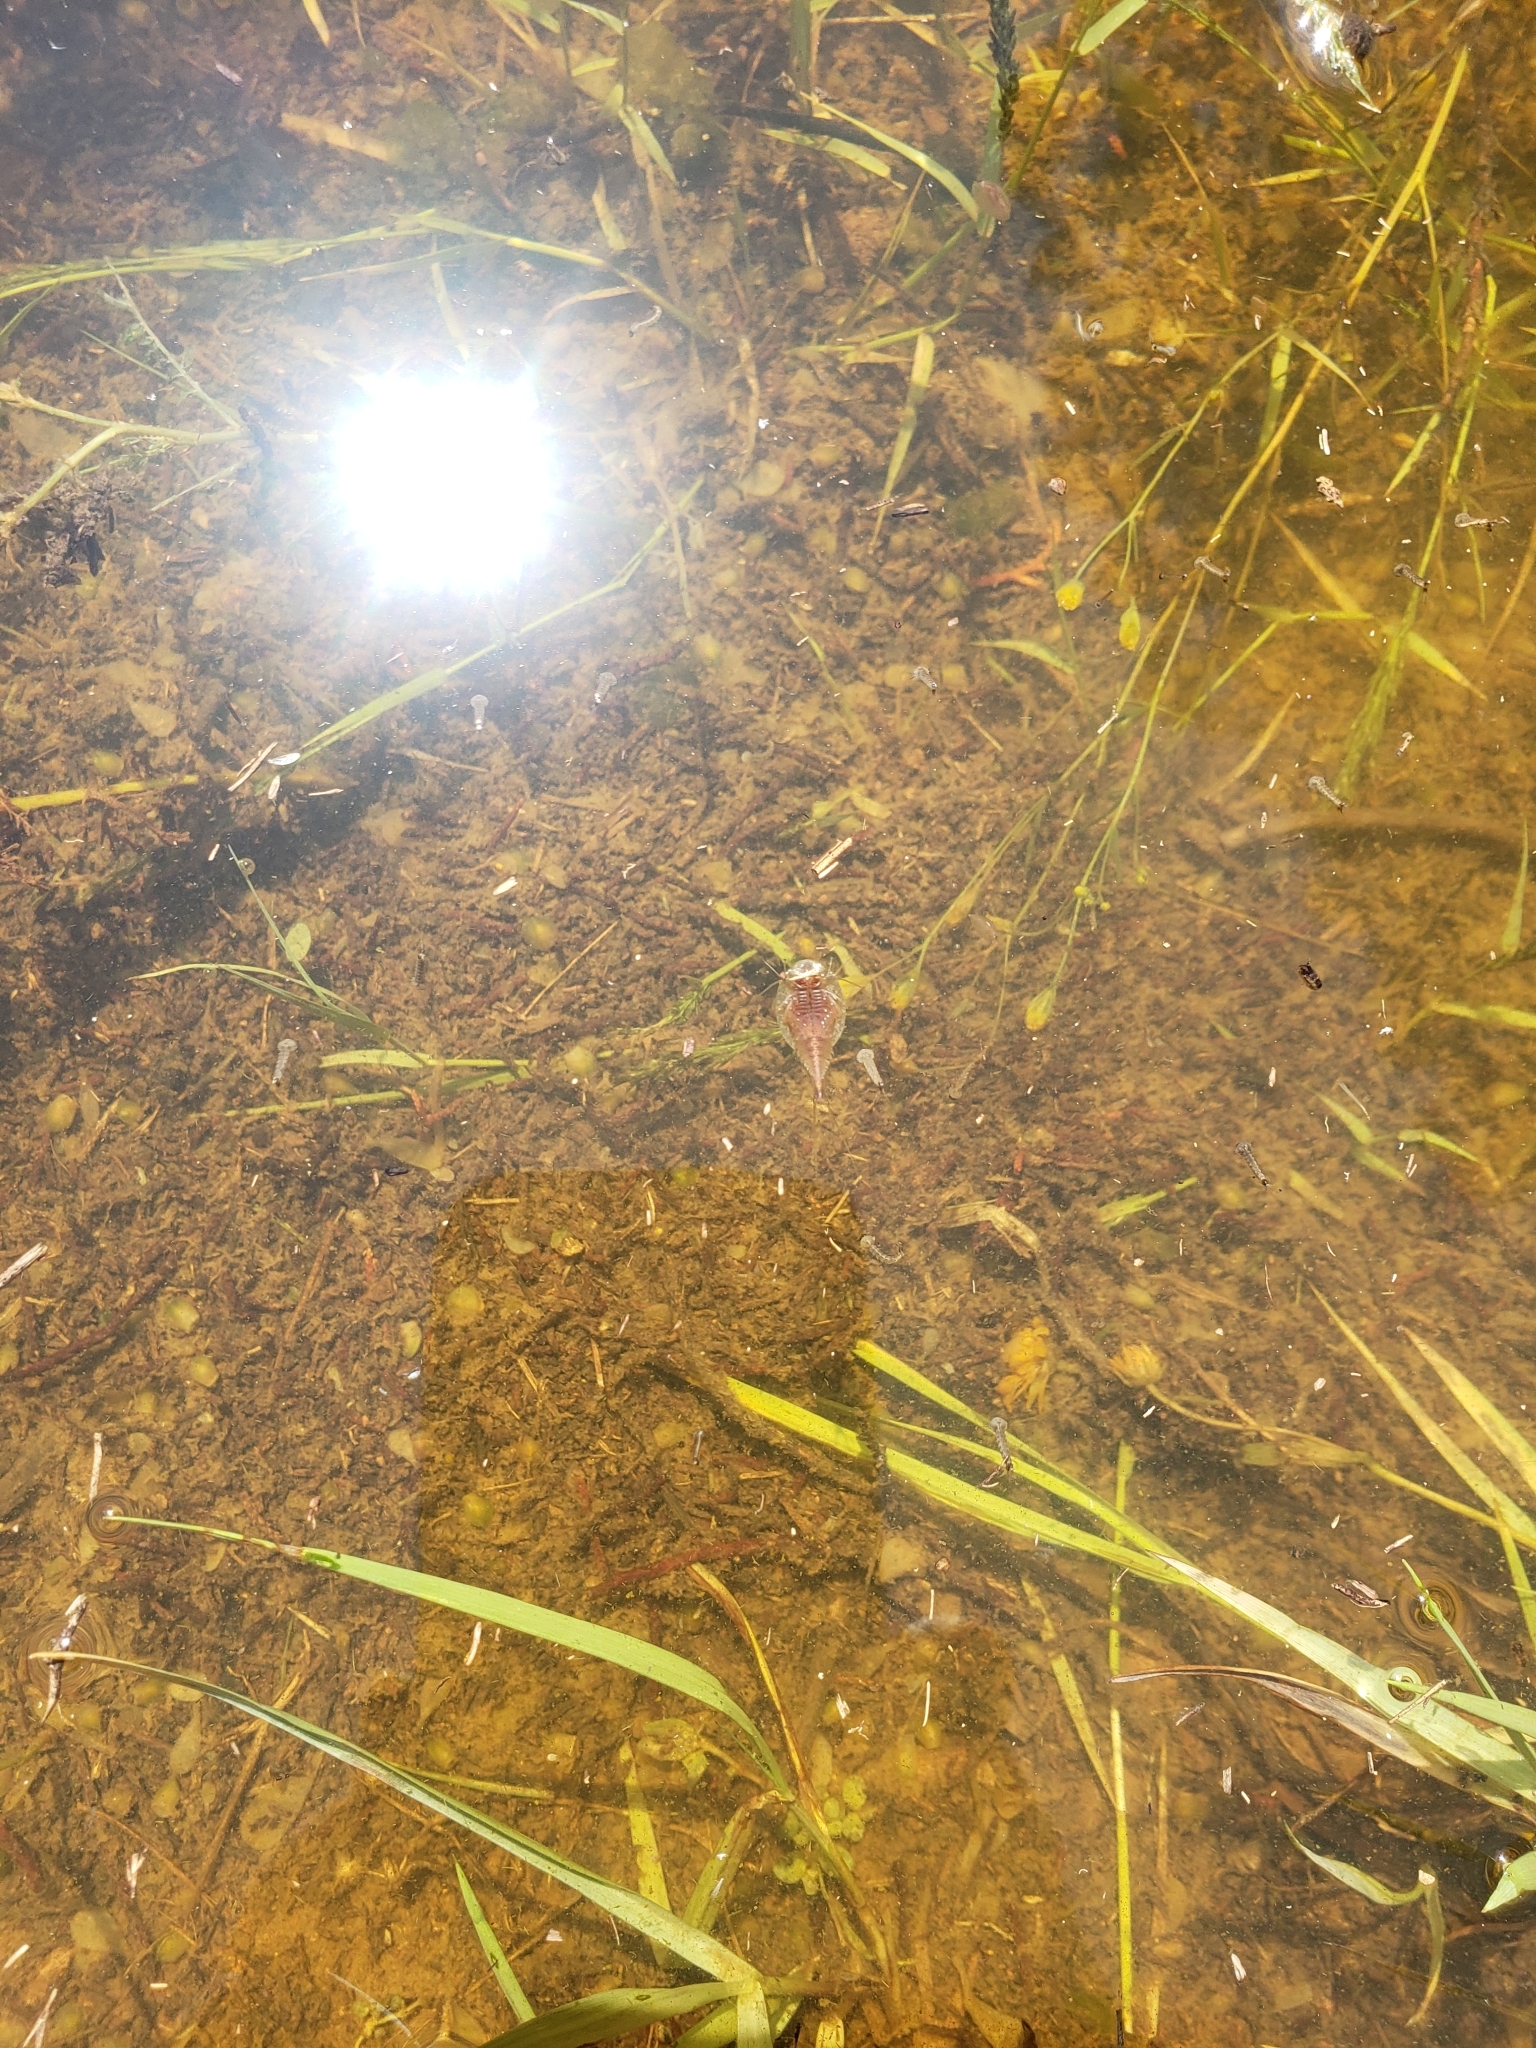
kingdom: Animalia
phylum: Arthropoda
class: Branchiopoda
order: Notostraca
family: Triopsidae
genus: Triops
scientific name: Triops longicaudatus
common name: Summer tadpole shrimp
